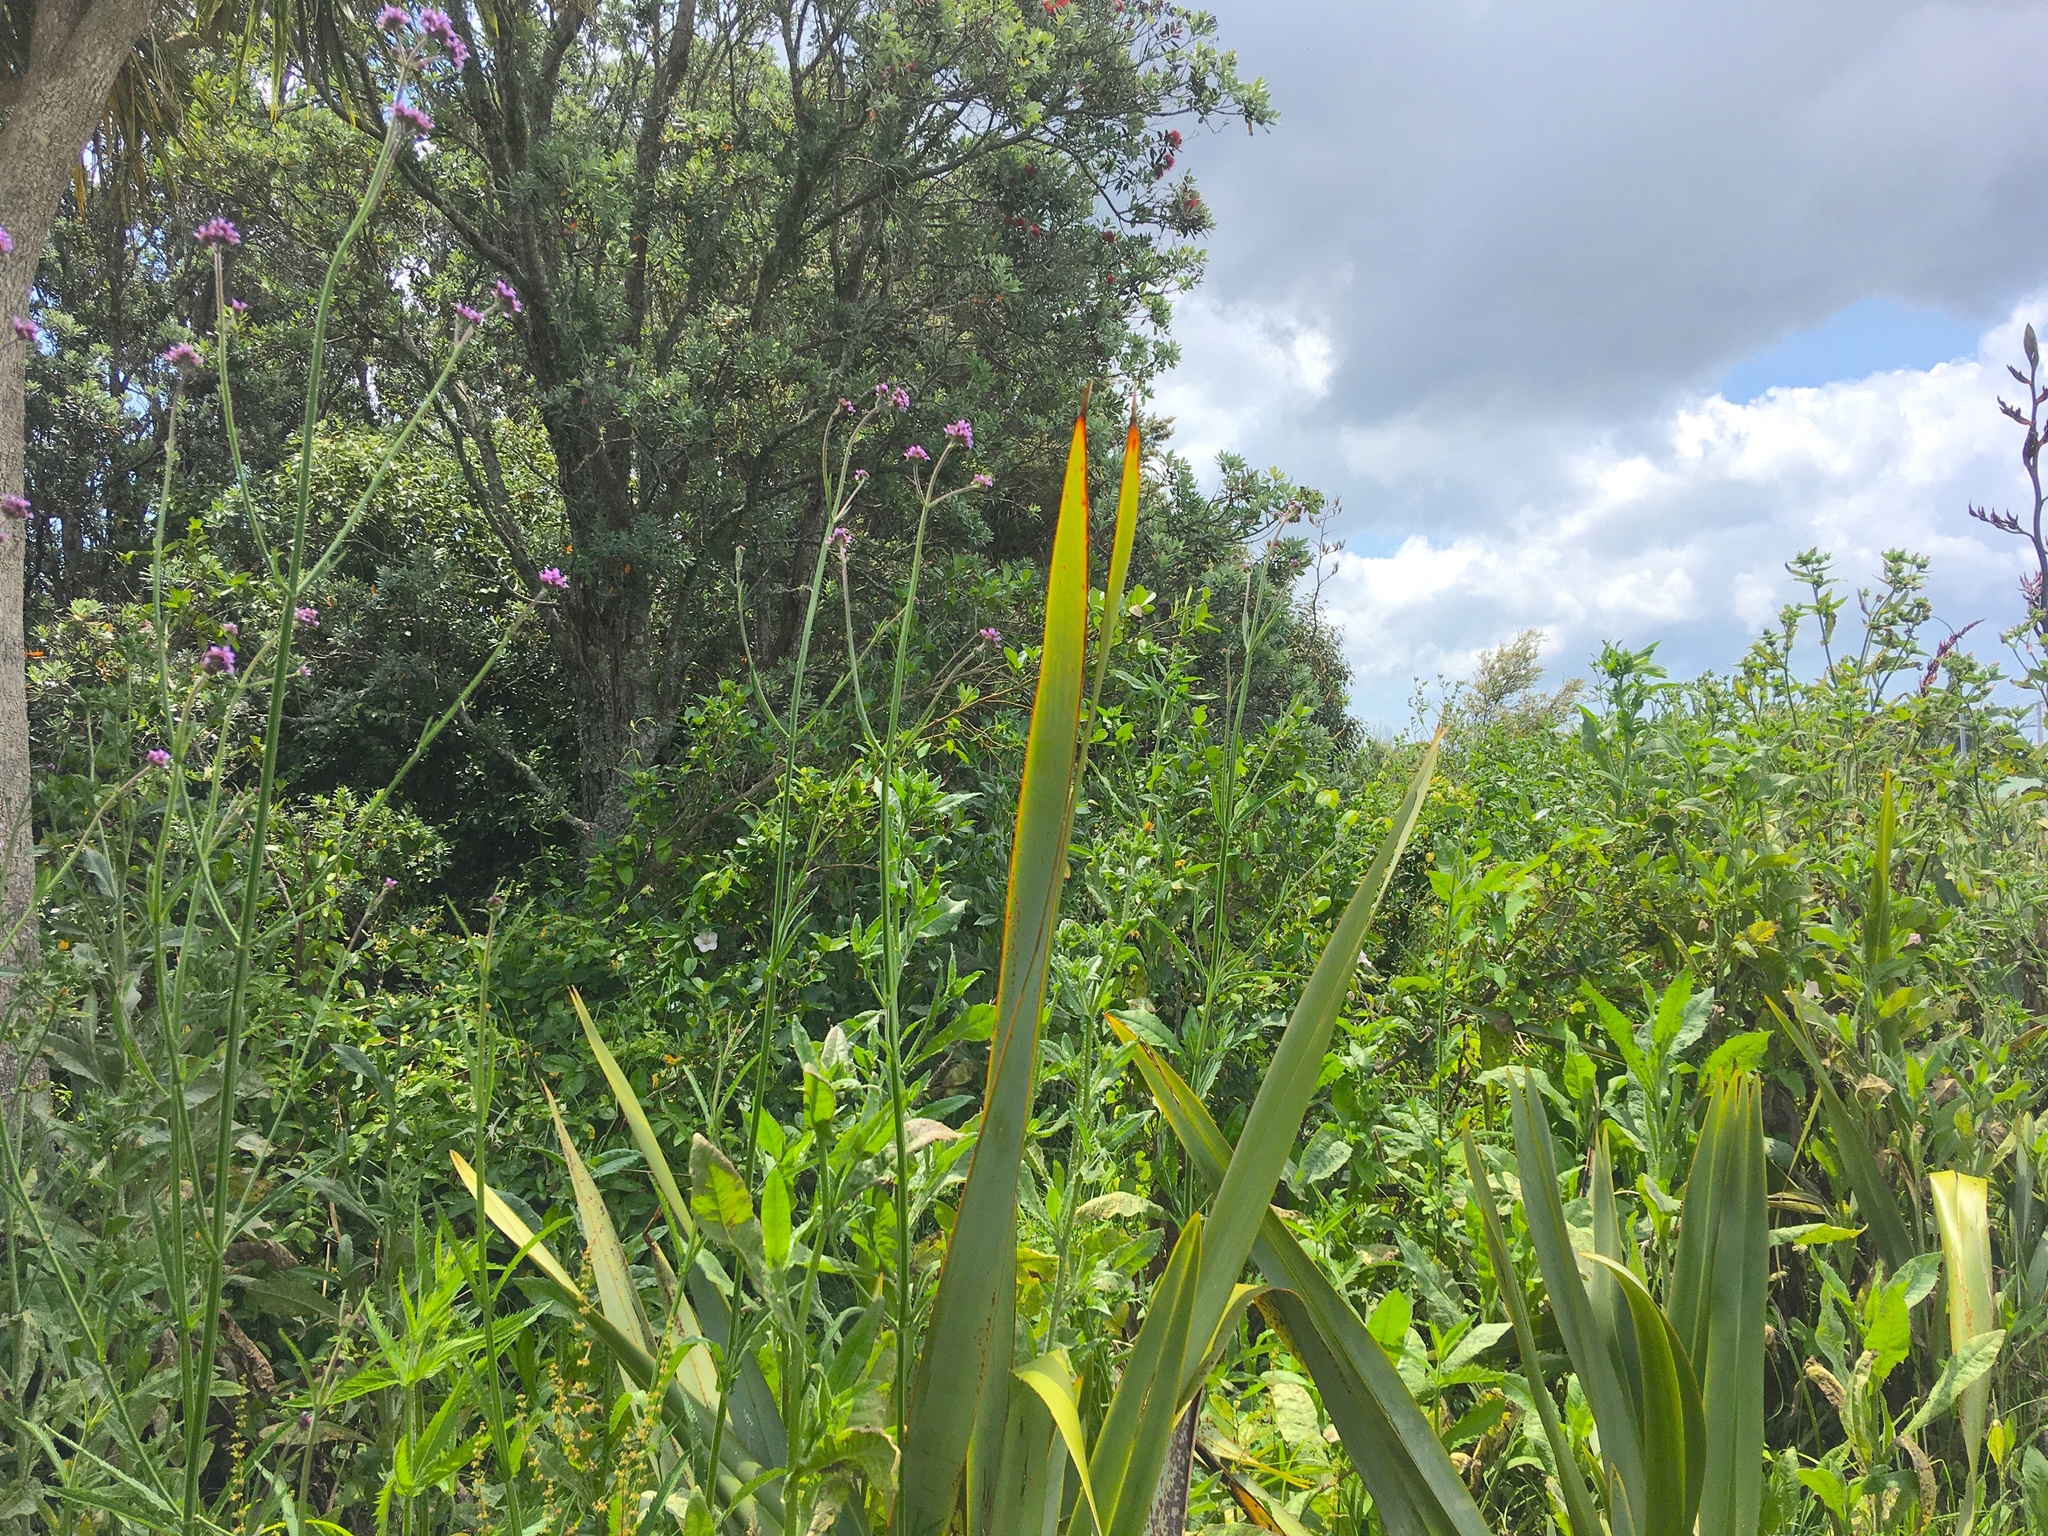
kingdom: Plantae
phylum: Tracheophyta
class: Magnoliopsida
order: Myrtales
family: Myrtaceae
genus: Metrosideros
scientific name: Metrosideros excelsa
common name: New zealand christmastree
